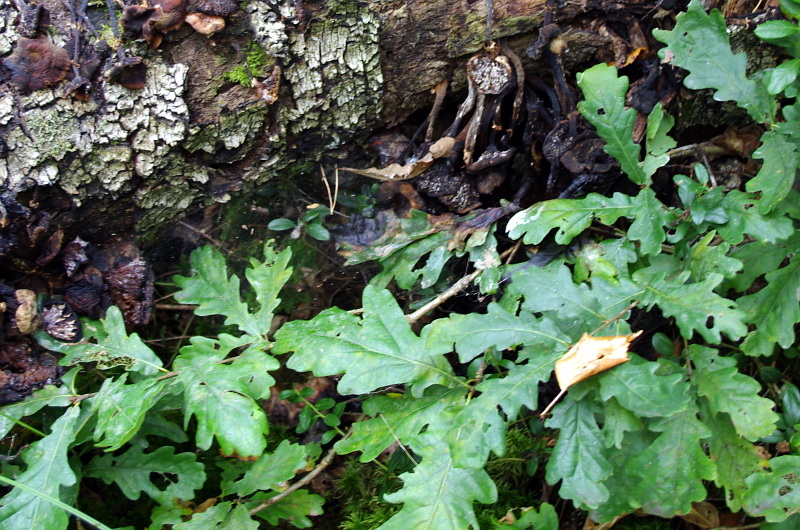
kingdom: Plantae
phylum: Tracheophyta
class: Magnoliopsida
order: Fagales
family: Fagaceae
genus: Quercus
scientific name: Quercus robur
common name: Pedunculate oak
